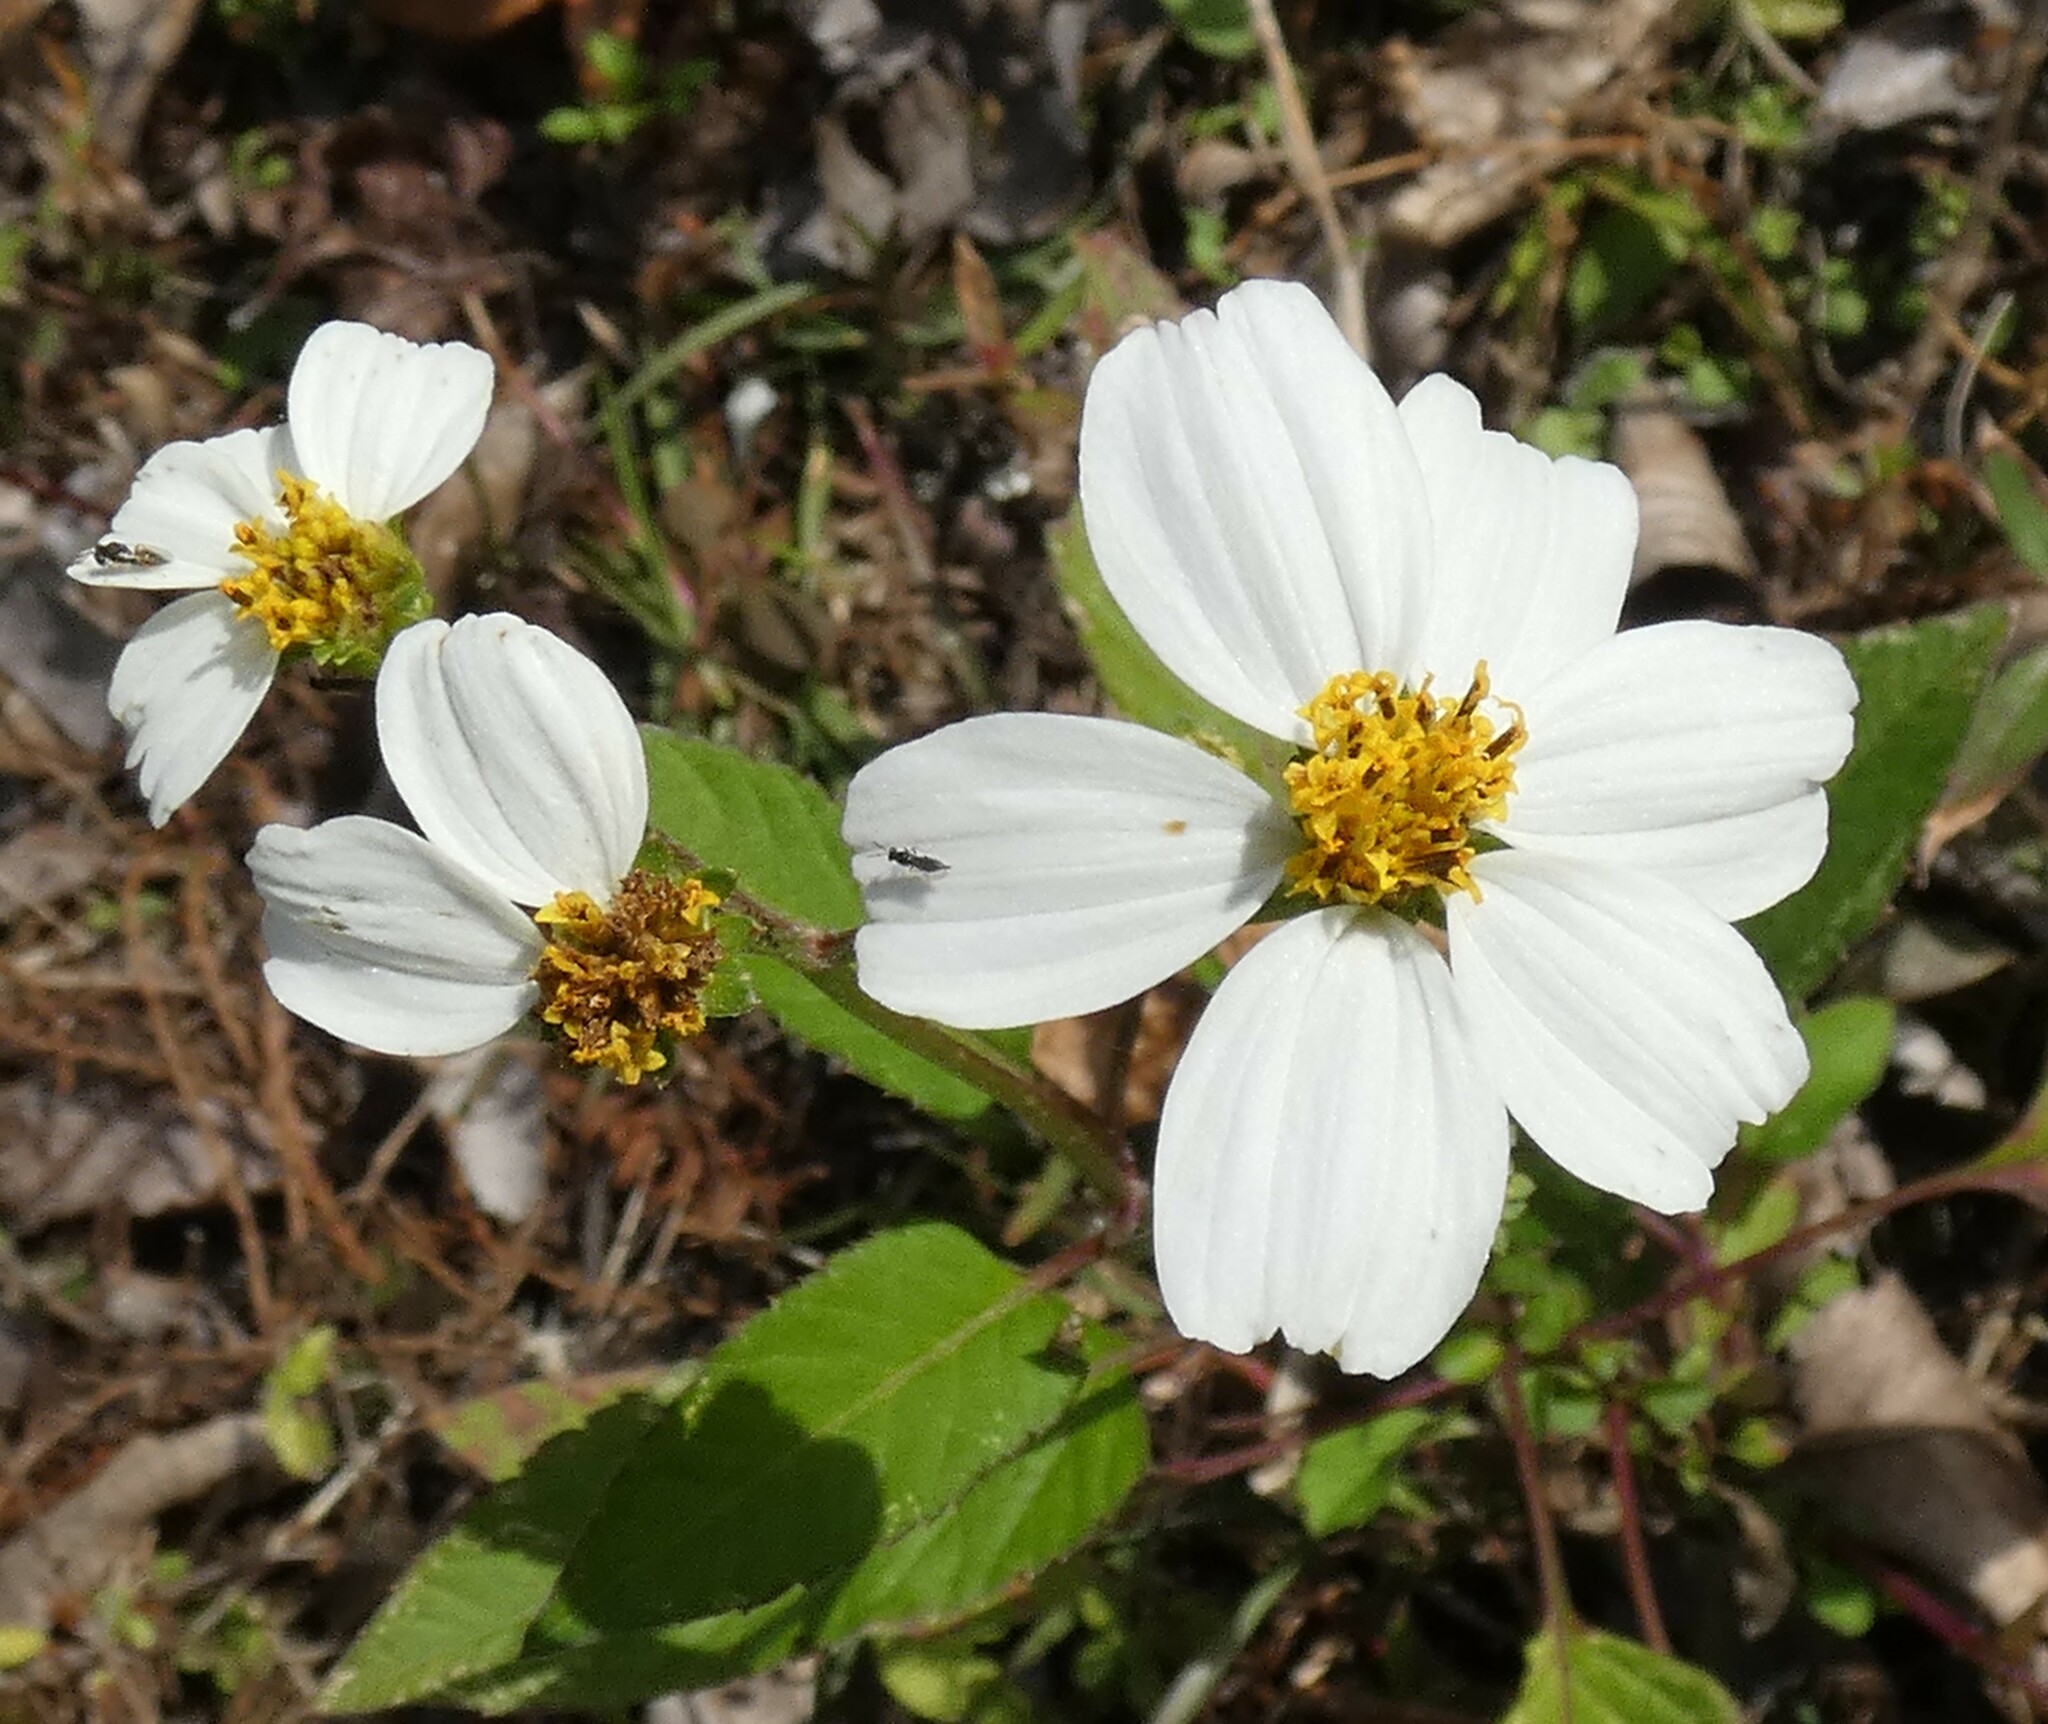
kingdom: Plantae
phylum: Tracheophyta
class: Magnoliopsida
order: Asterales
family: Asteraceae
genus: Bidens
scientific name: Bidens alba
